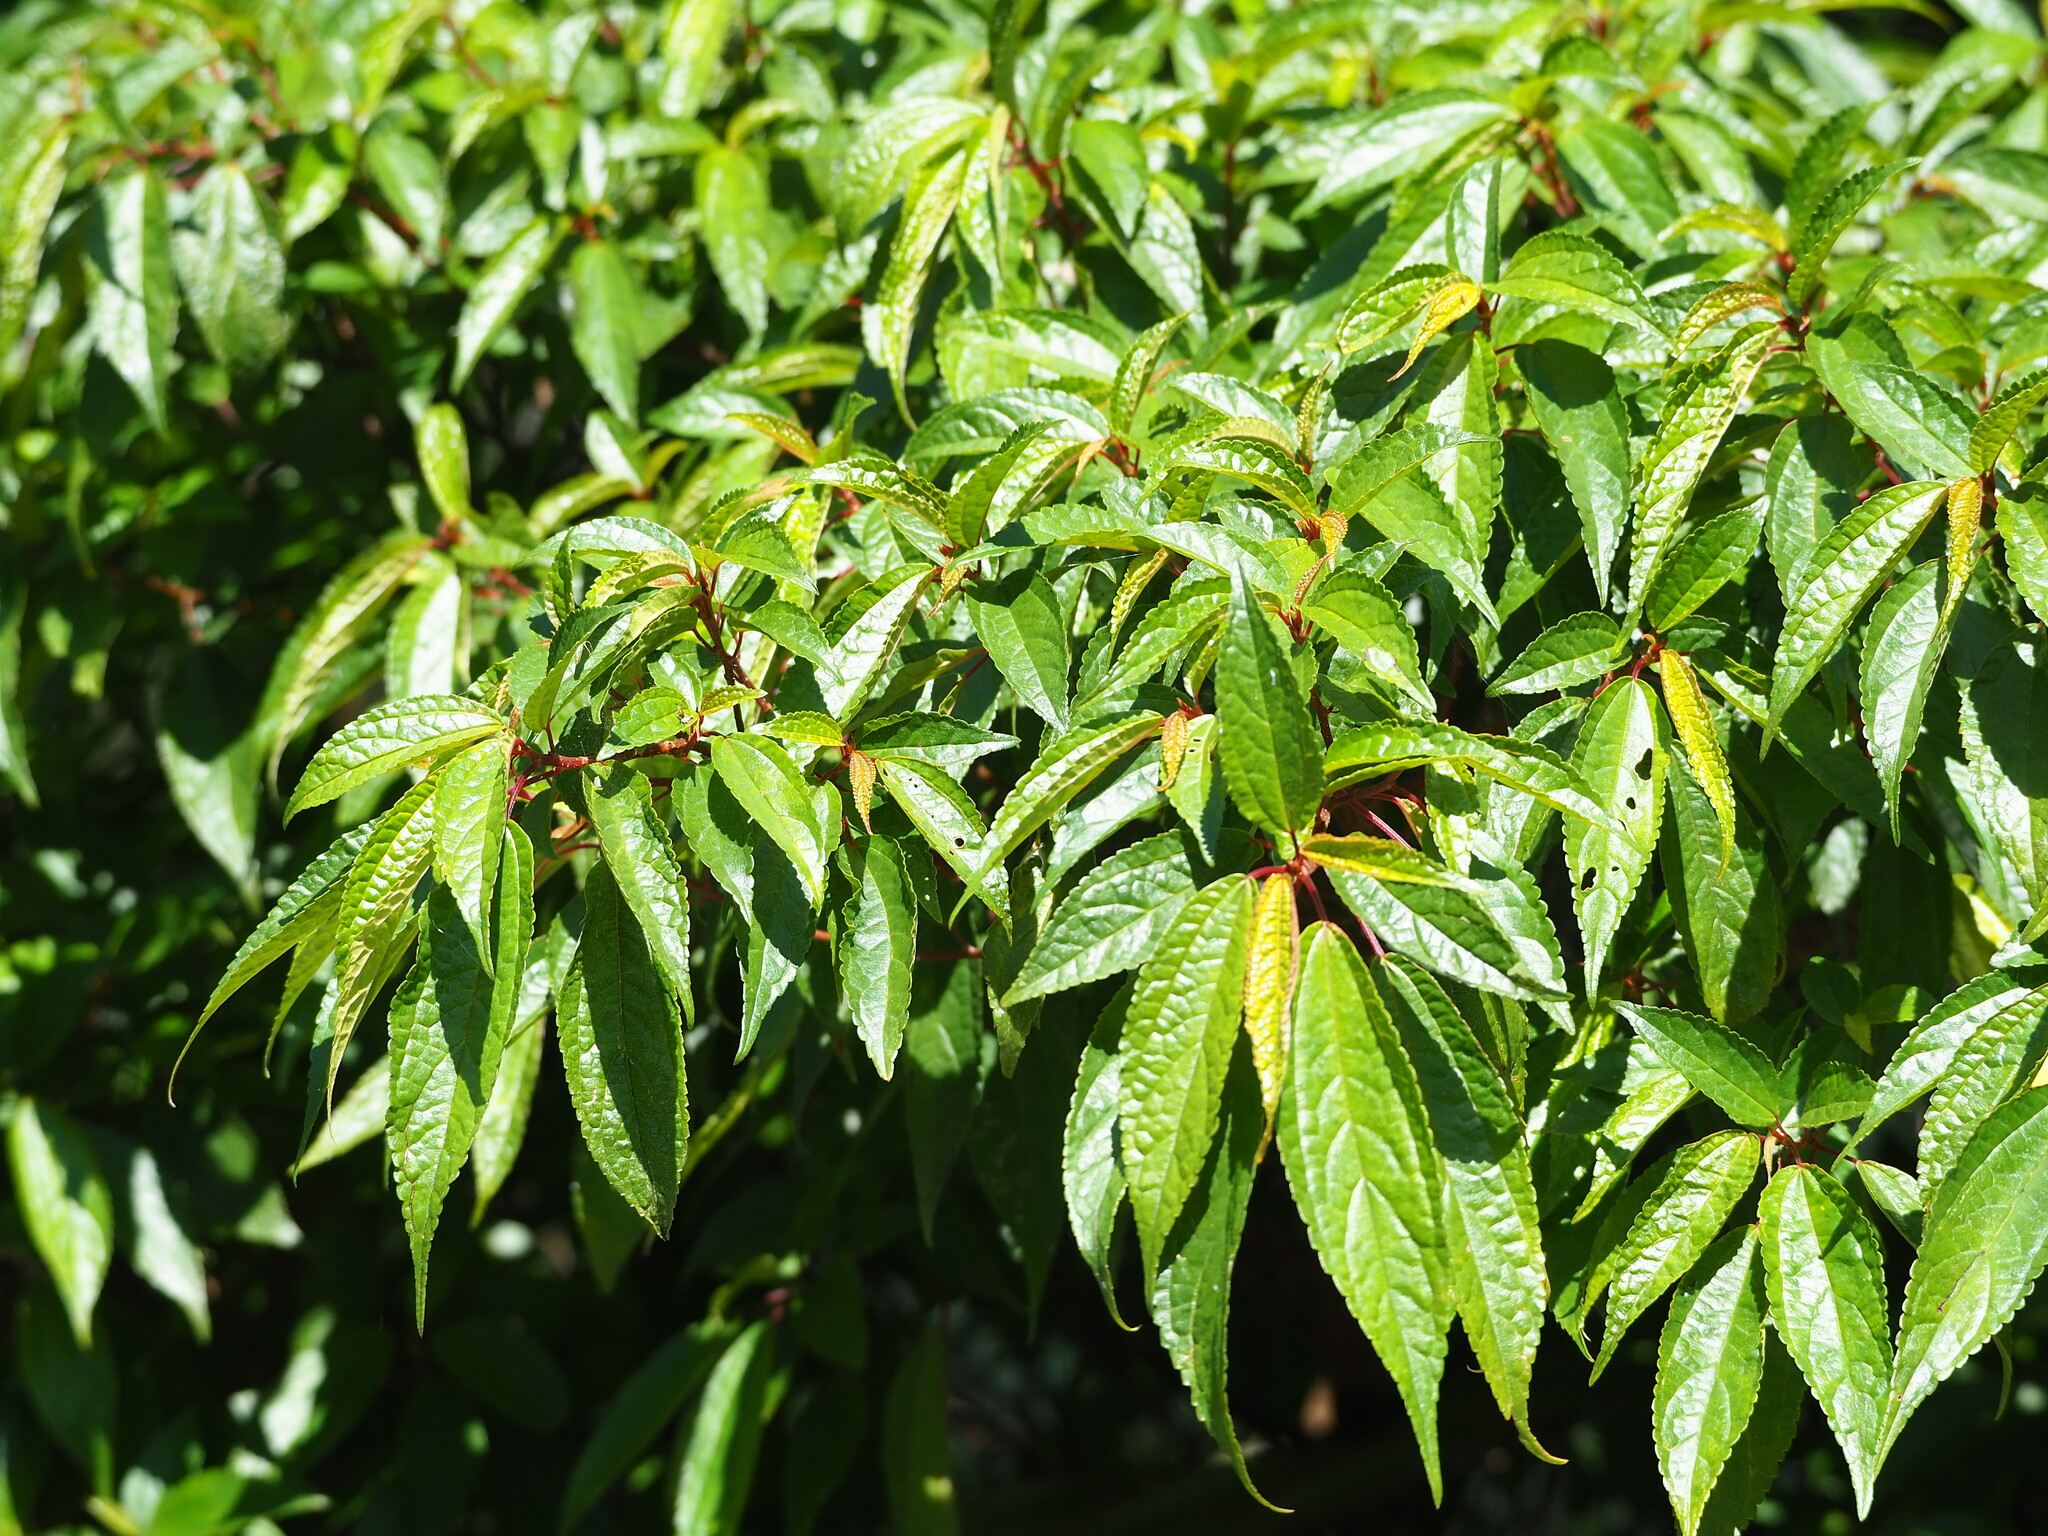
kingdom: Plantae
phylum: Tracheophyta
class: Magnoliopsida
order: Rosales
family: Urticaceae
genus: Oreocnide
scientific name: Oreocnide pedunculata
